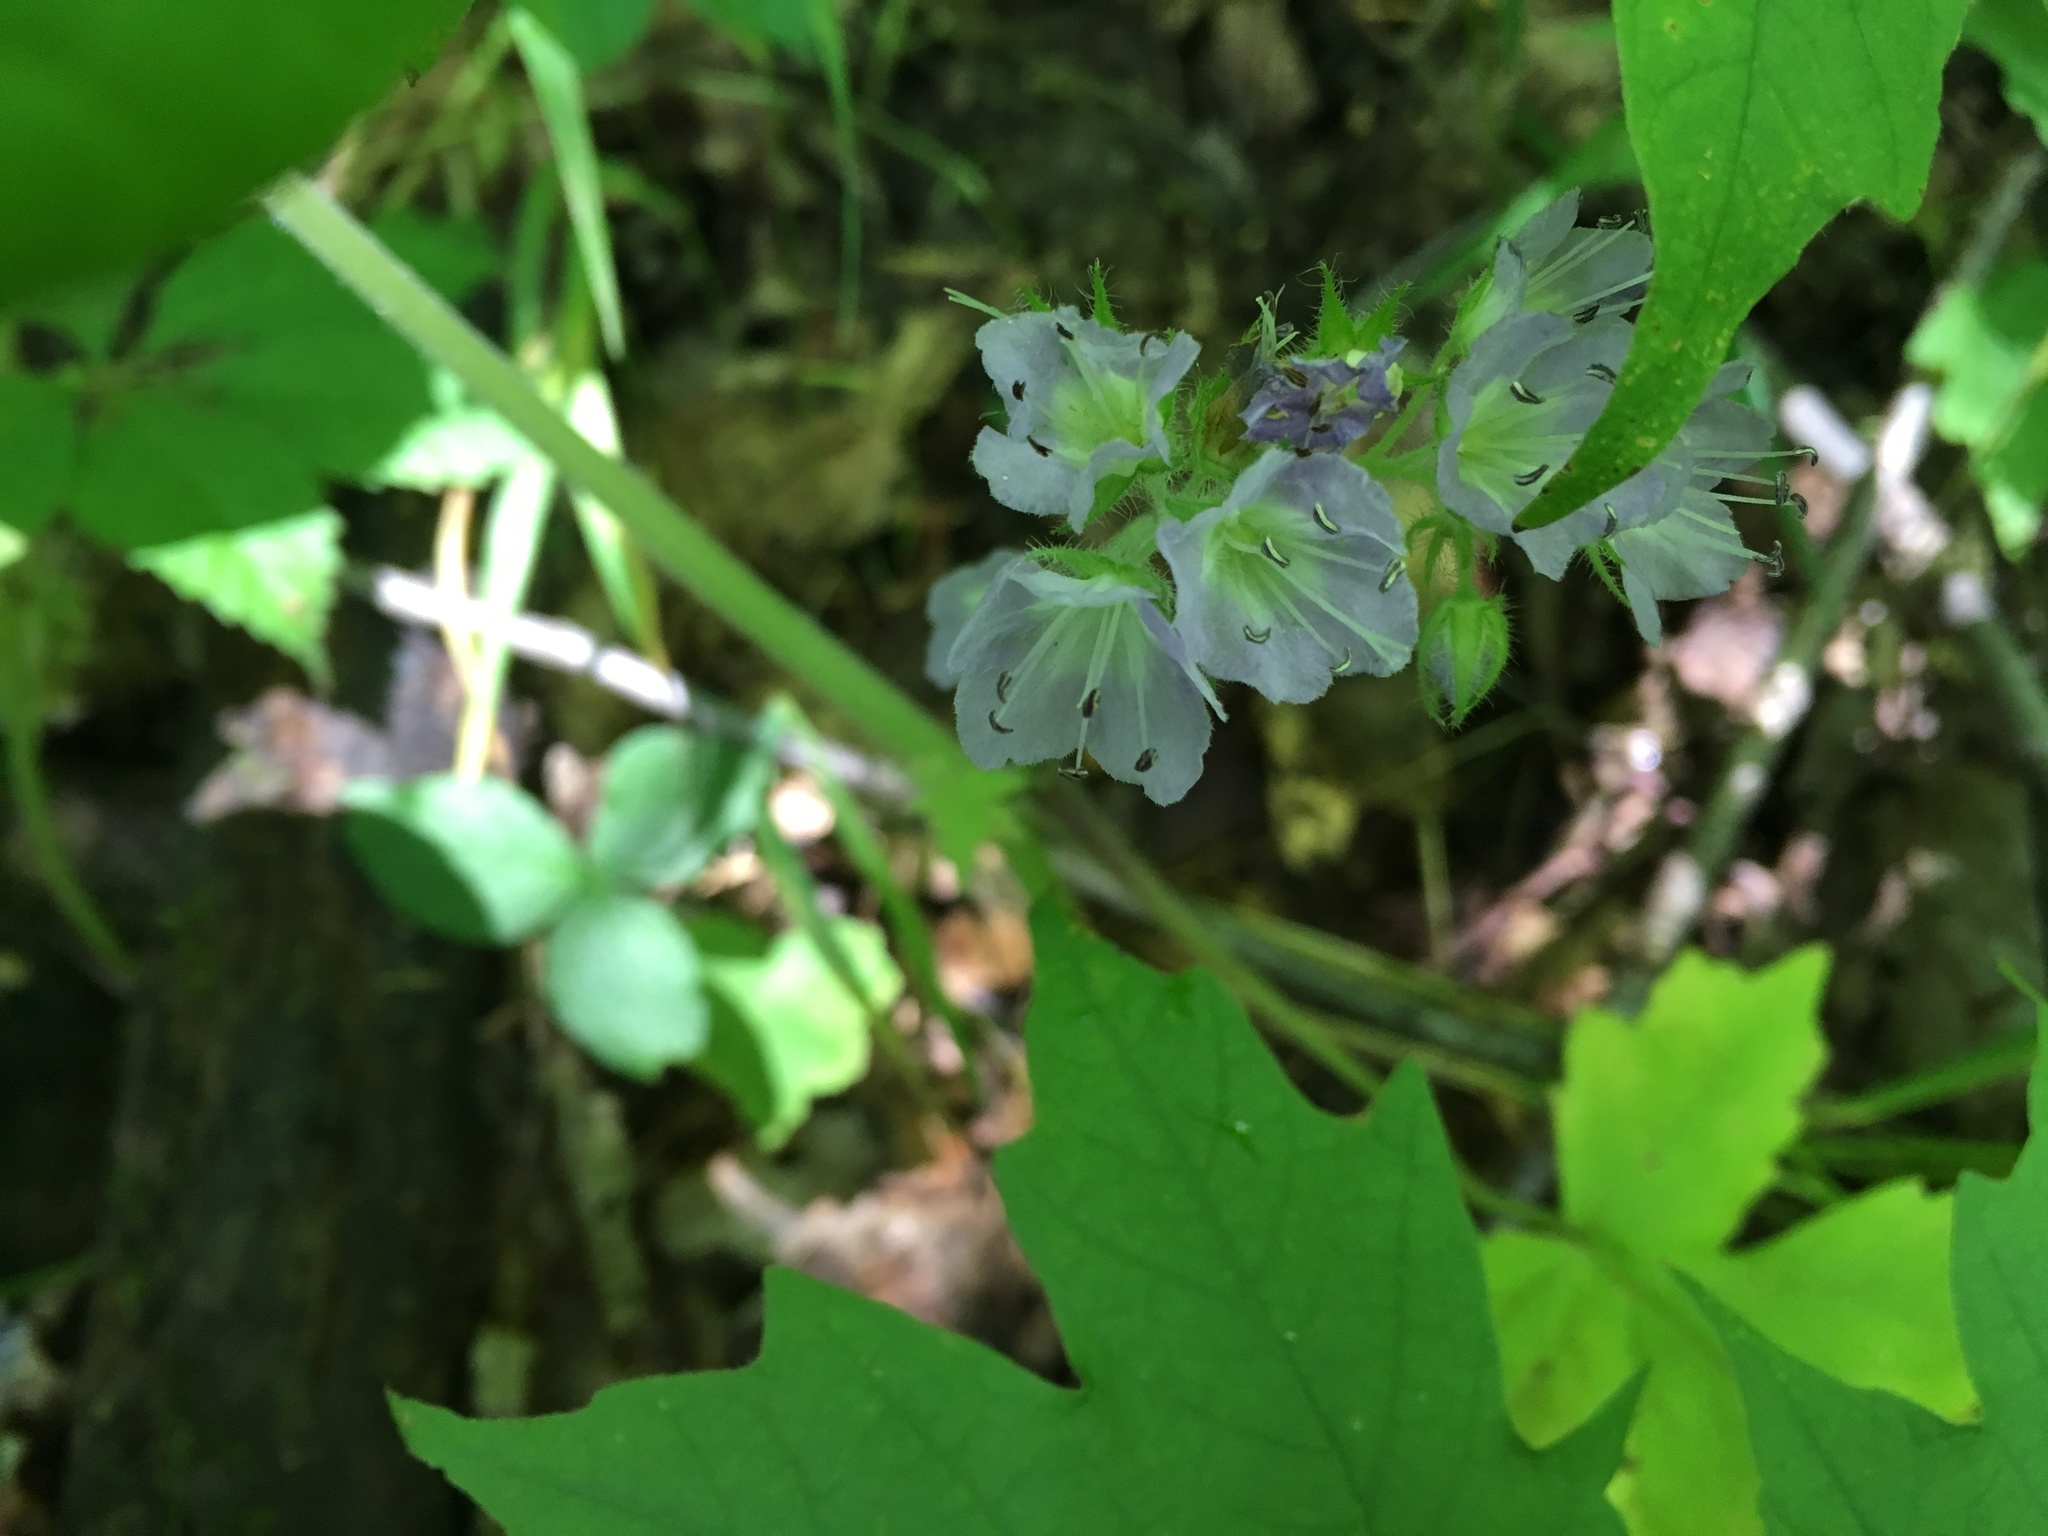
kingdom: Plantae
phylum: Tracheophyta
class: Magnoliopsida
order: Boraginales
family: Hydrophyllaceae
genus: Hydrophyllum
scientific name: Hydrophyllum appendiculatum
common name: Appendaged waterleaf
